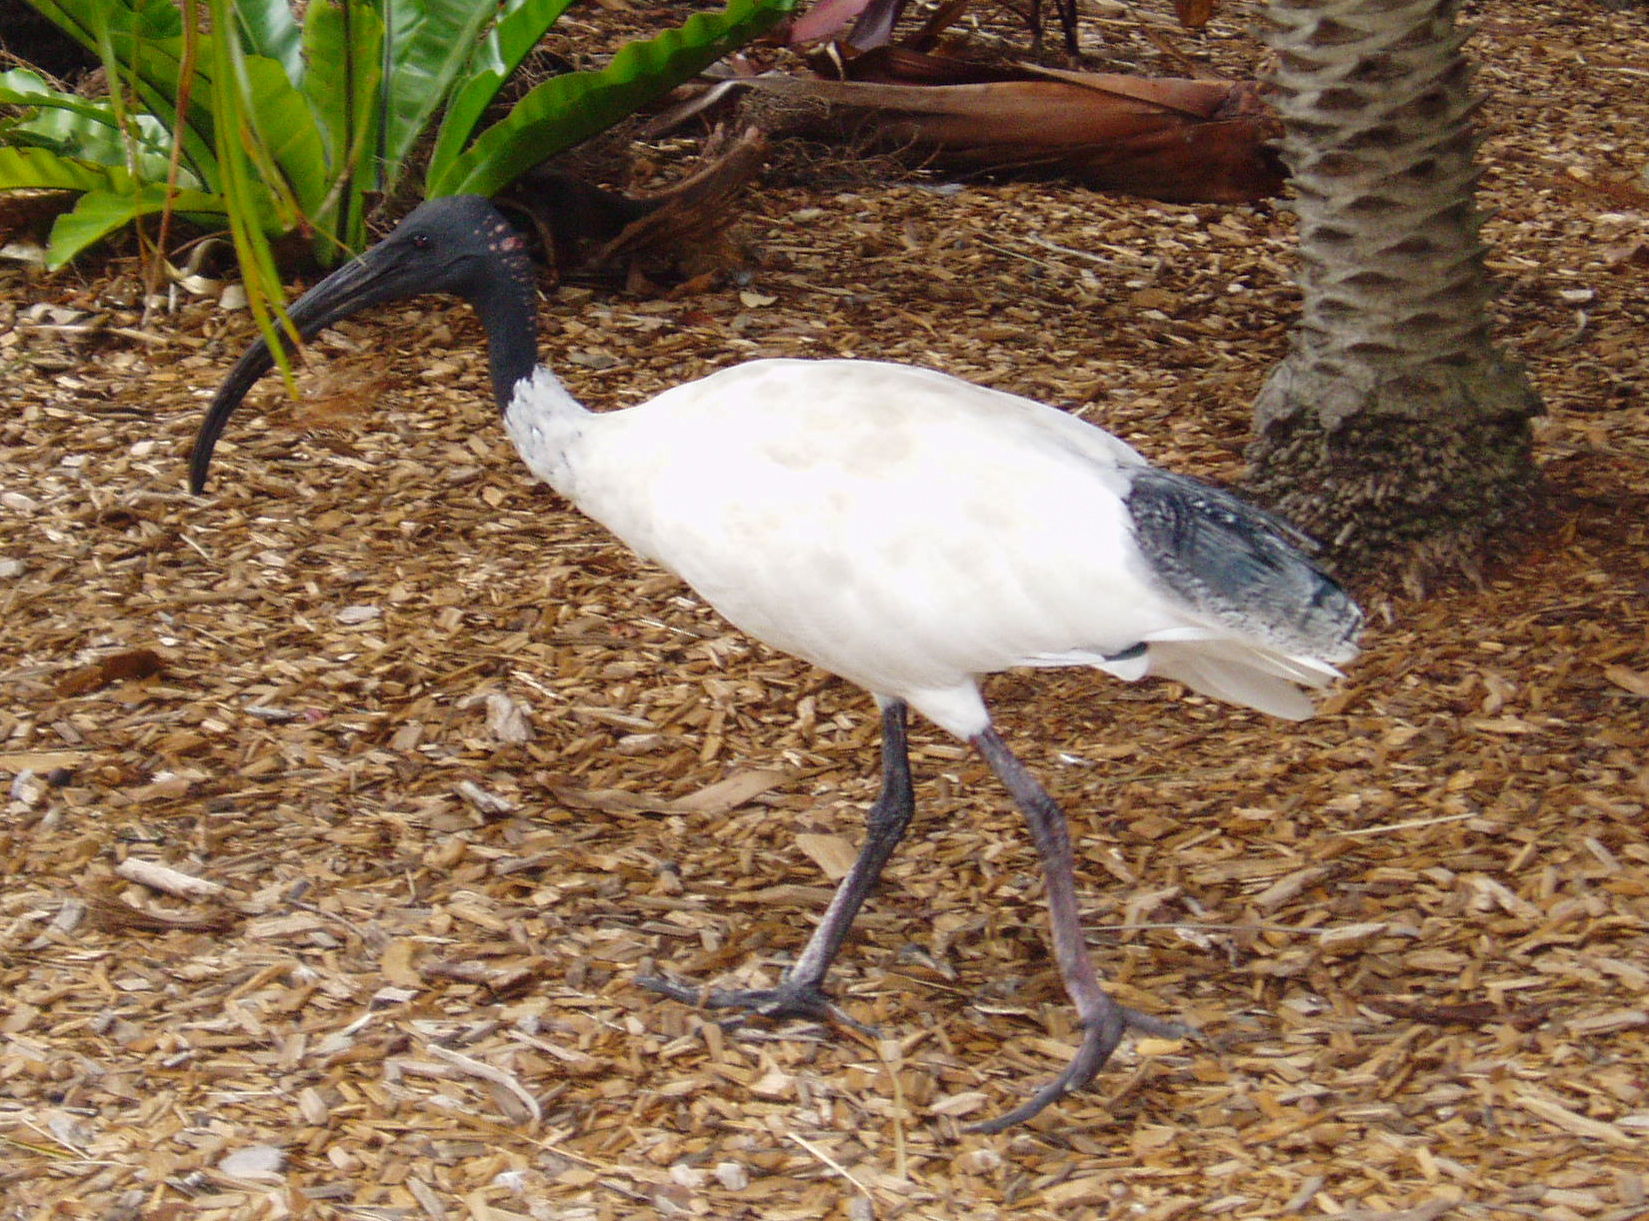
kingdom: Animalia
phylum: Chordata
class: Aves
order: Pelecaniformes
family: Threskiornithidae
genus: Threskiornis
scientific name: Threskiornis molucca
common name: Australian white ibis
